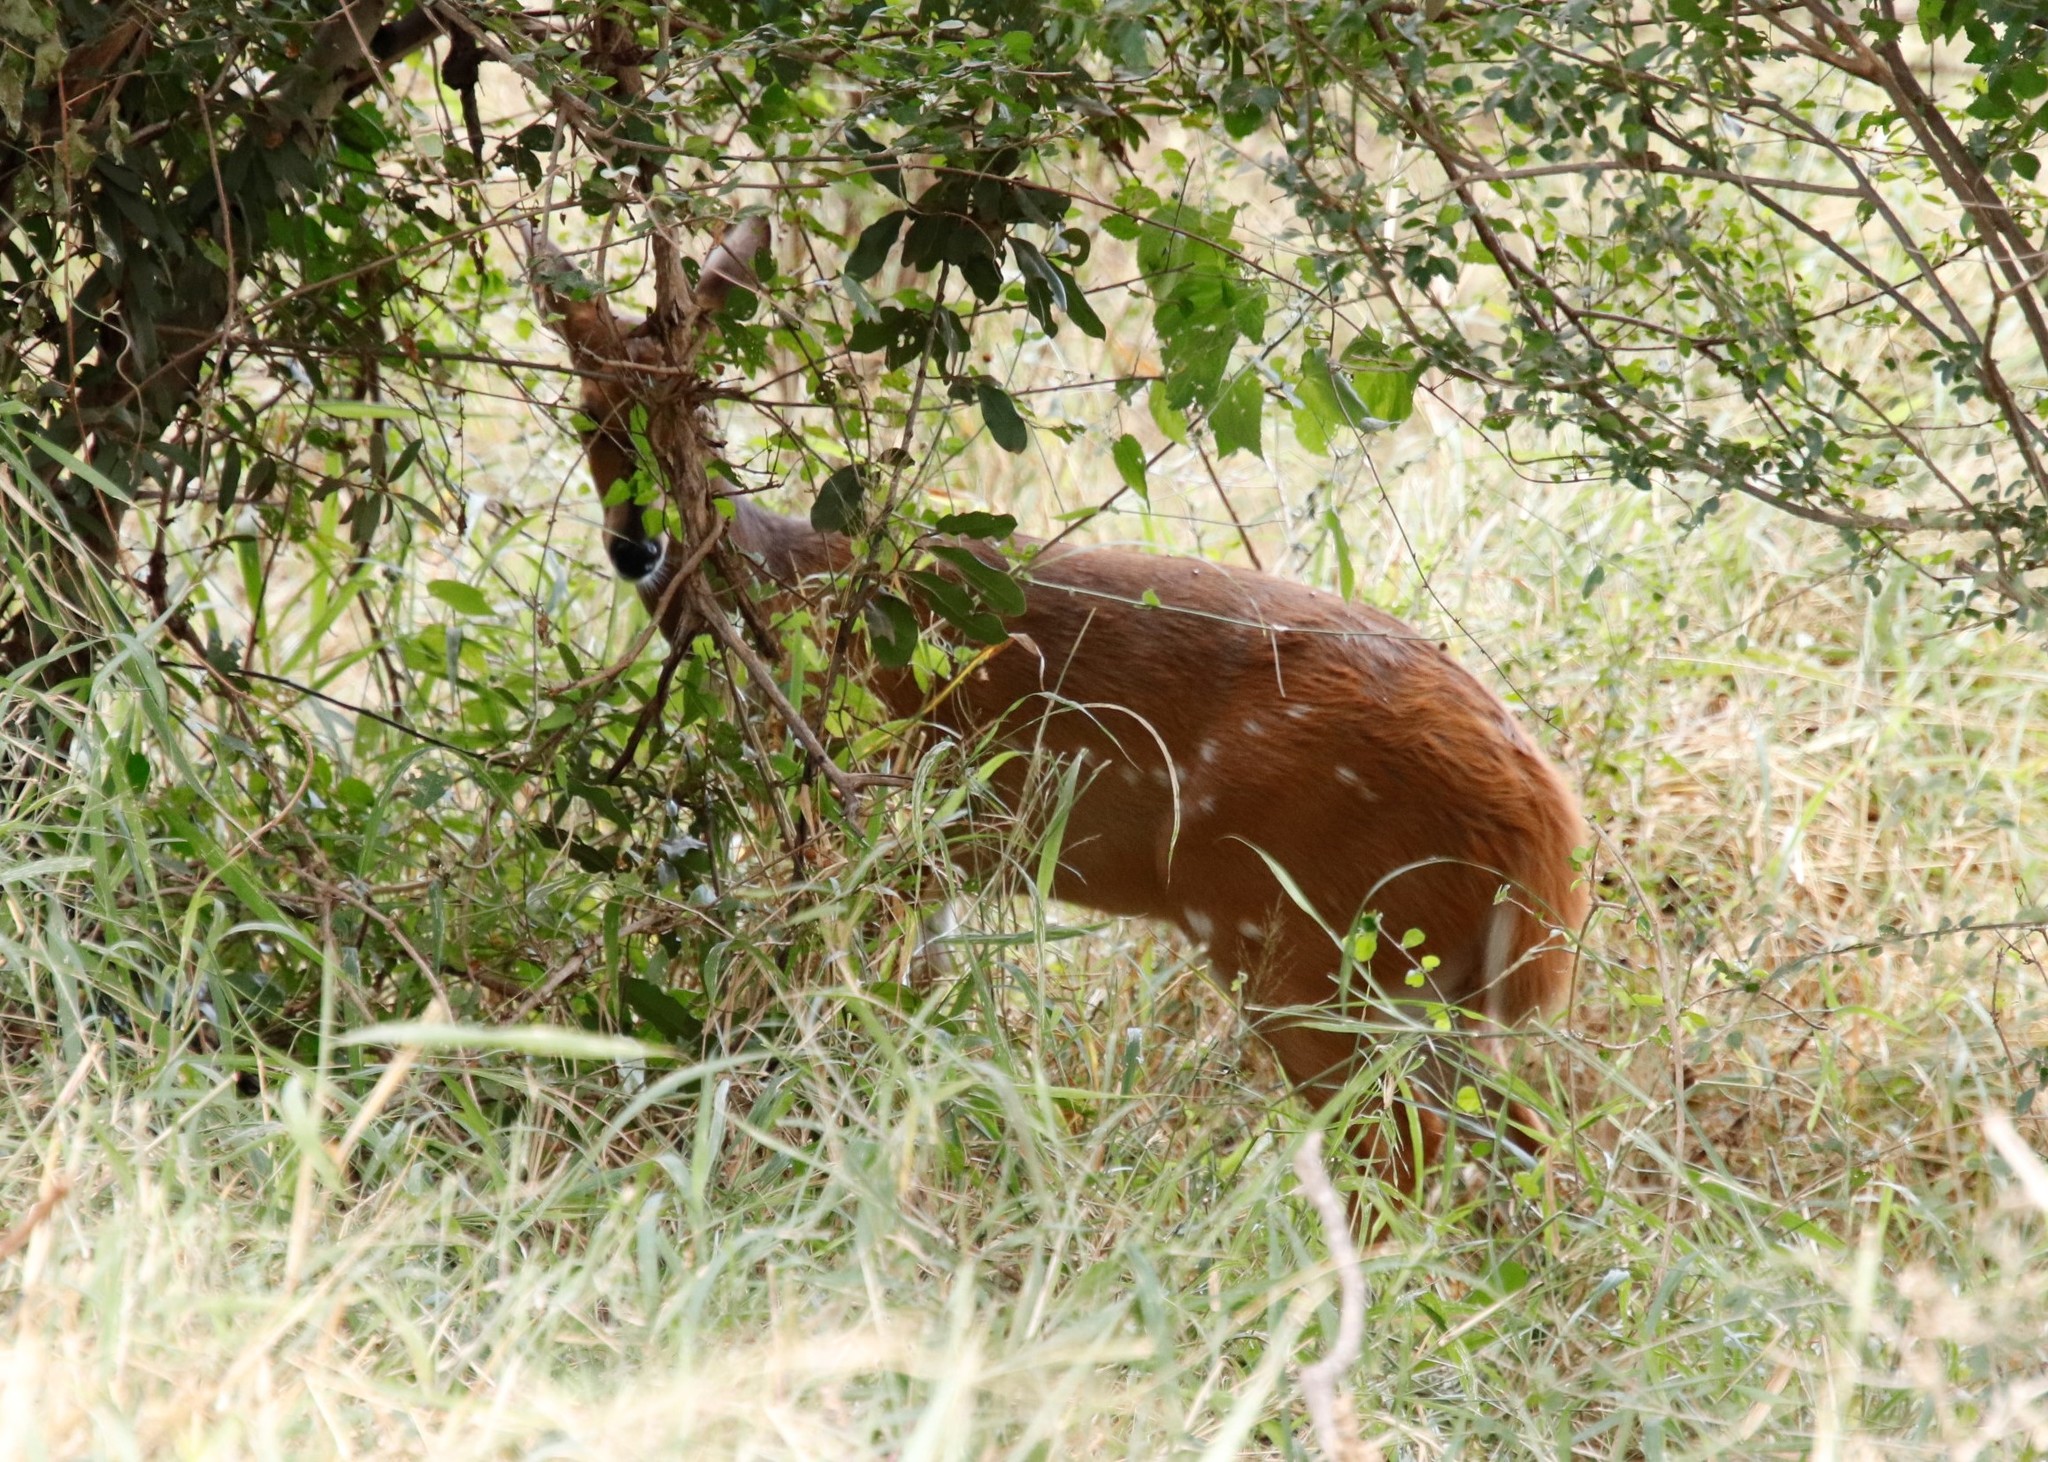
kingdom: Animalia
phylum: Chordata
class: Mammalia
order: Artiodactyla
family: Bovidae
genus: Tragelaphus
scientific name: Tragelaphus scriptus
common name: Bushbuck
